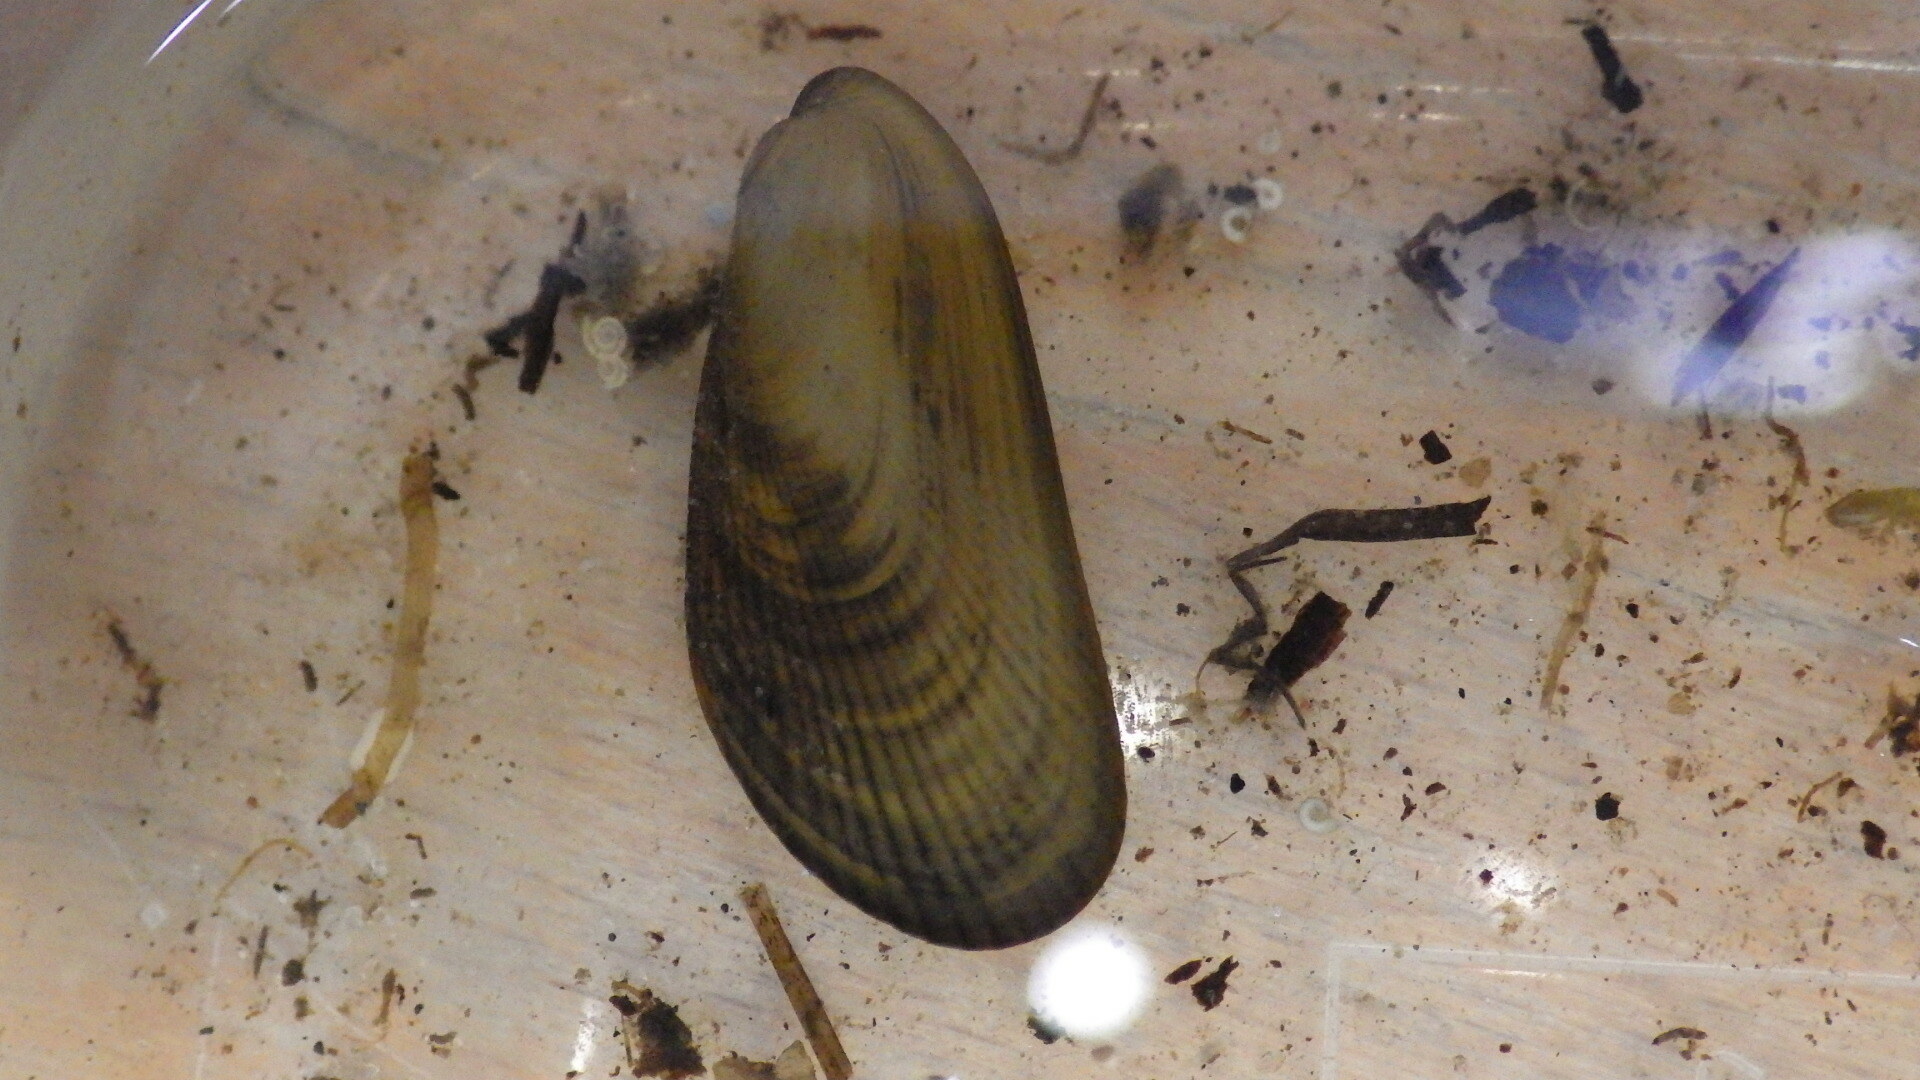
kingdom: Animalia
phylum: Mollusca
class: Bivalvia
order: Mytilida
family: Mytilidae
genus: Geukensia
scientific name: Geukensia demissa
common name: Ribbed mussel
